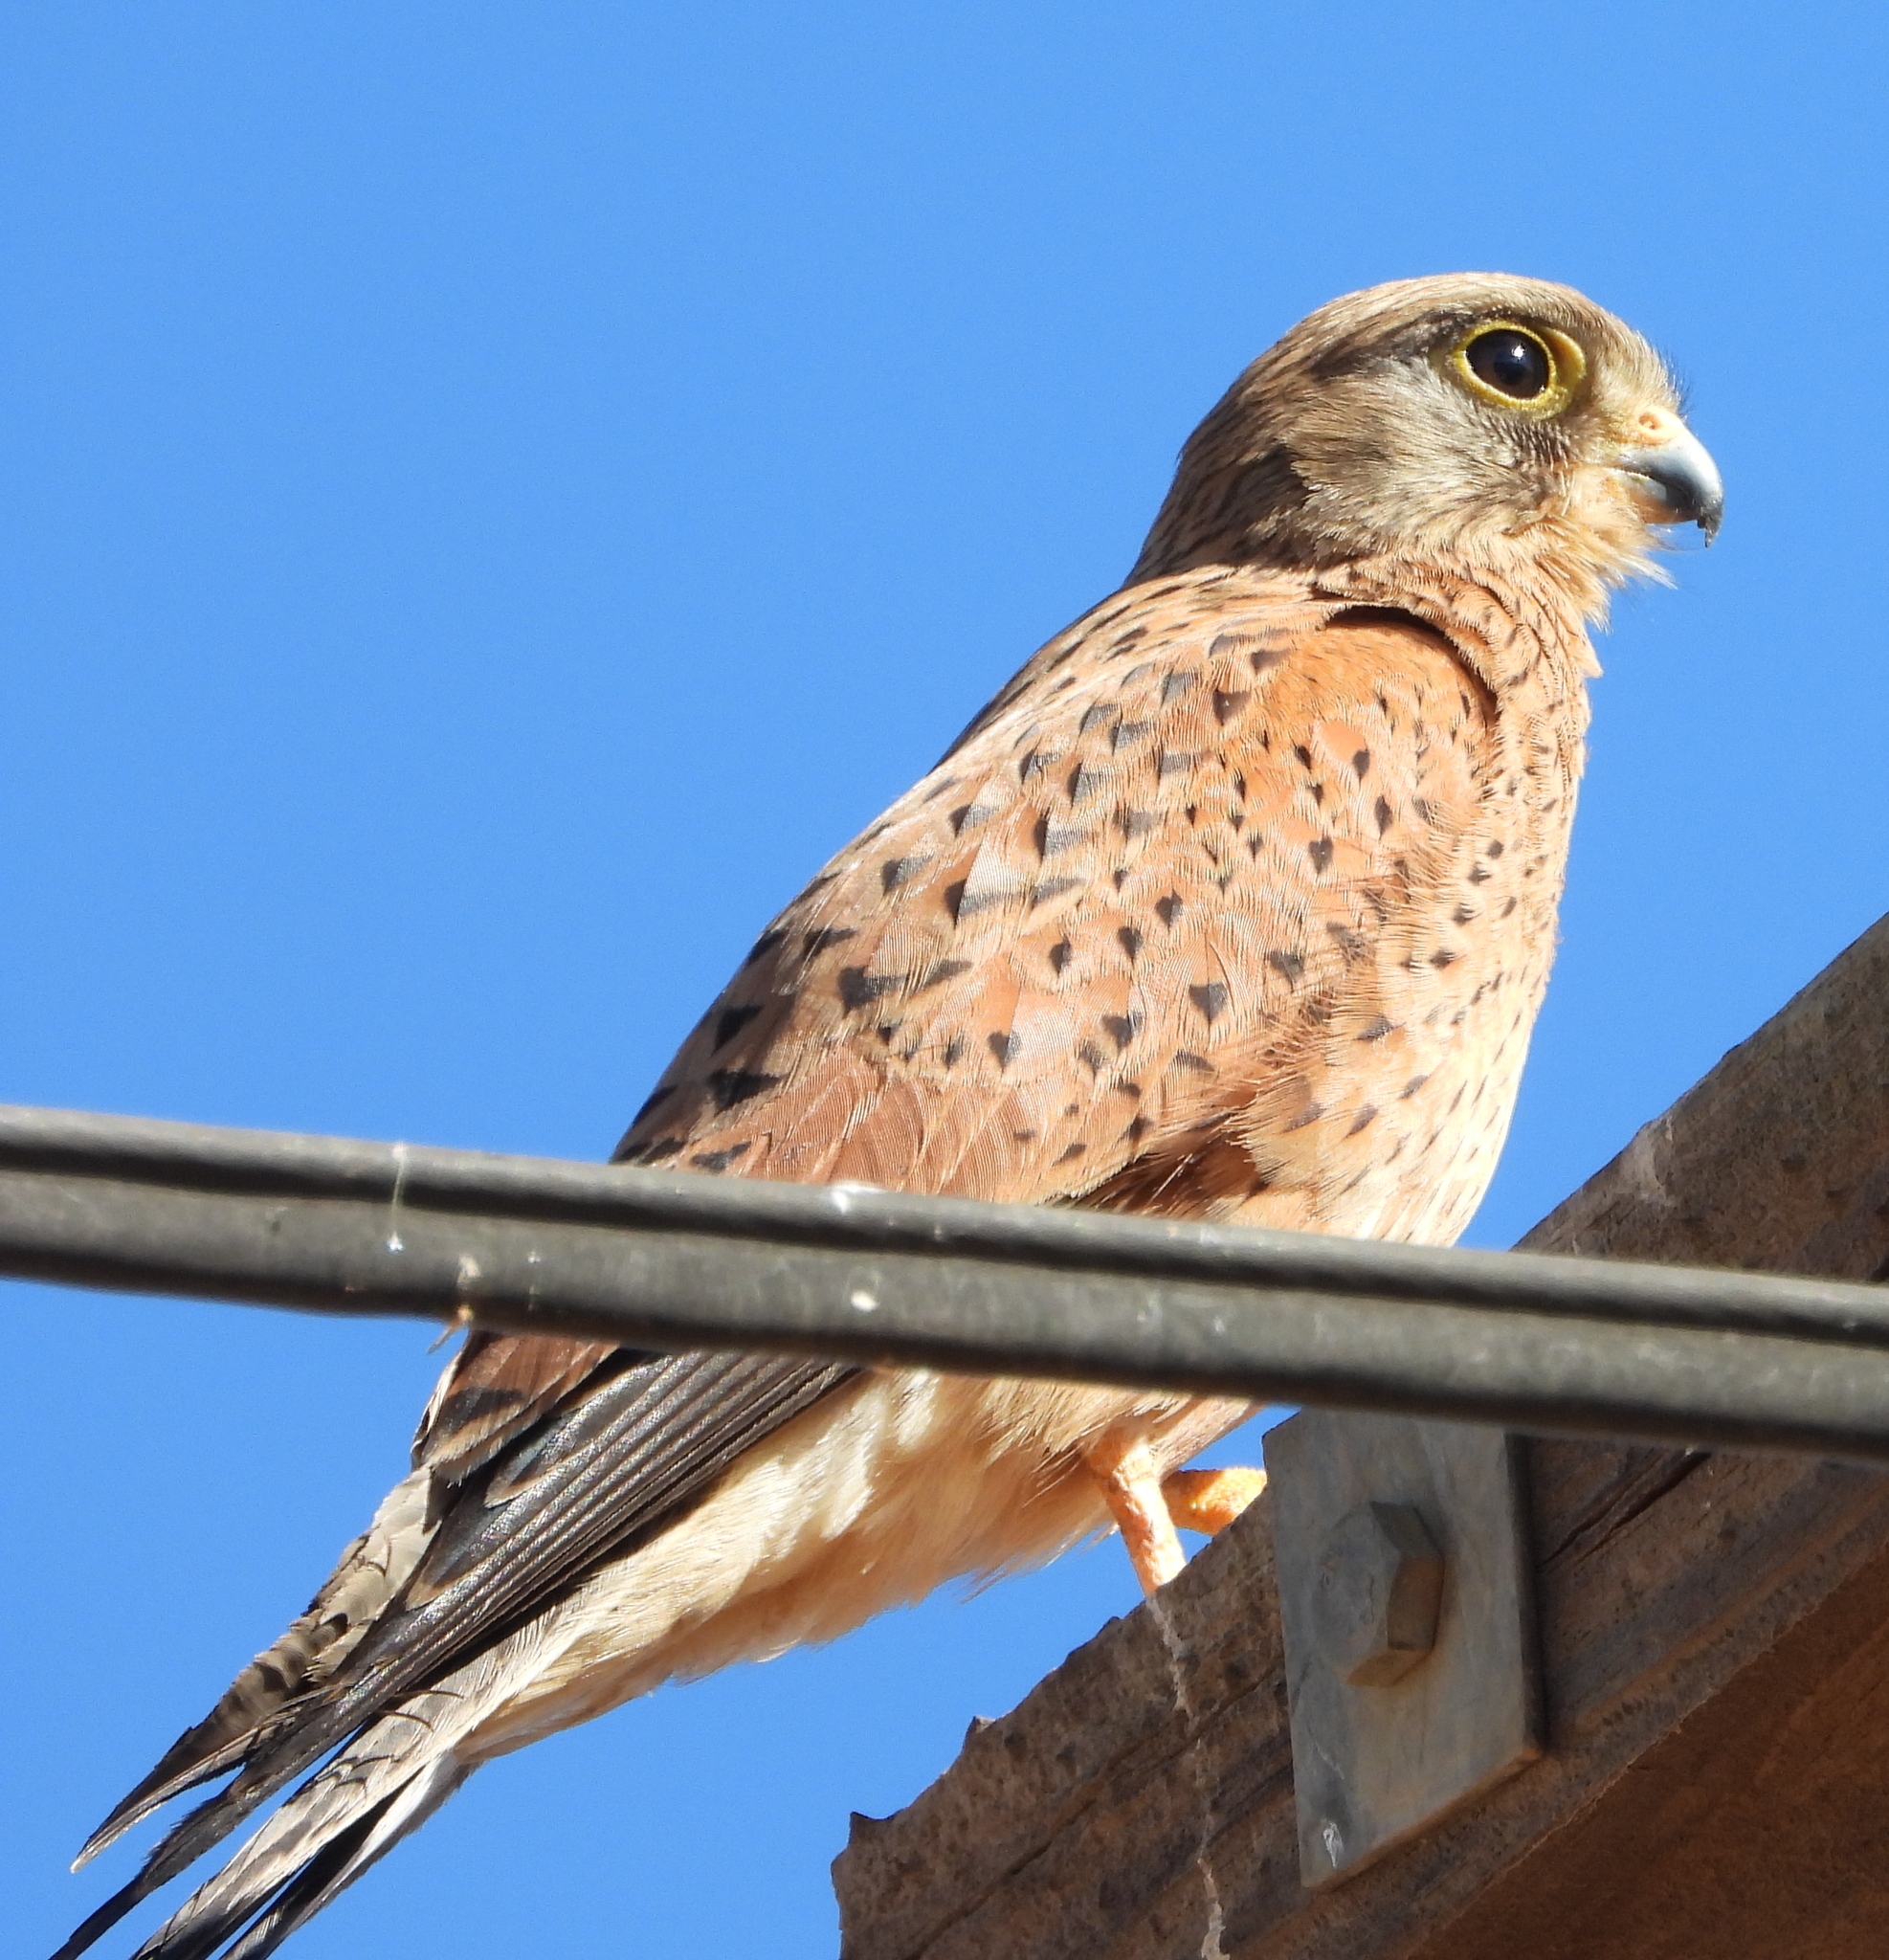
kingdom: Animalia
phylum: Chordata
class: Aves
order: Falconiformes
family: Falconidae
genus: Falco
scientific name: Falco rupicolus
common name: Rock kestrel
